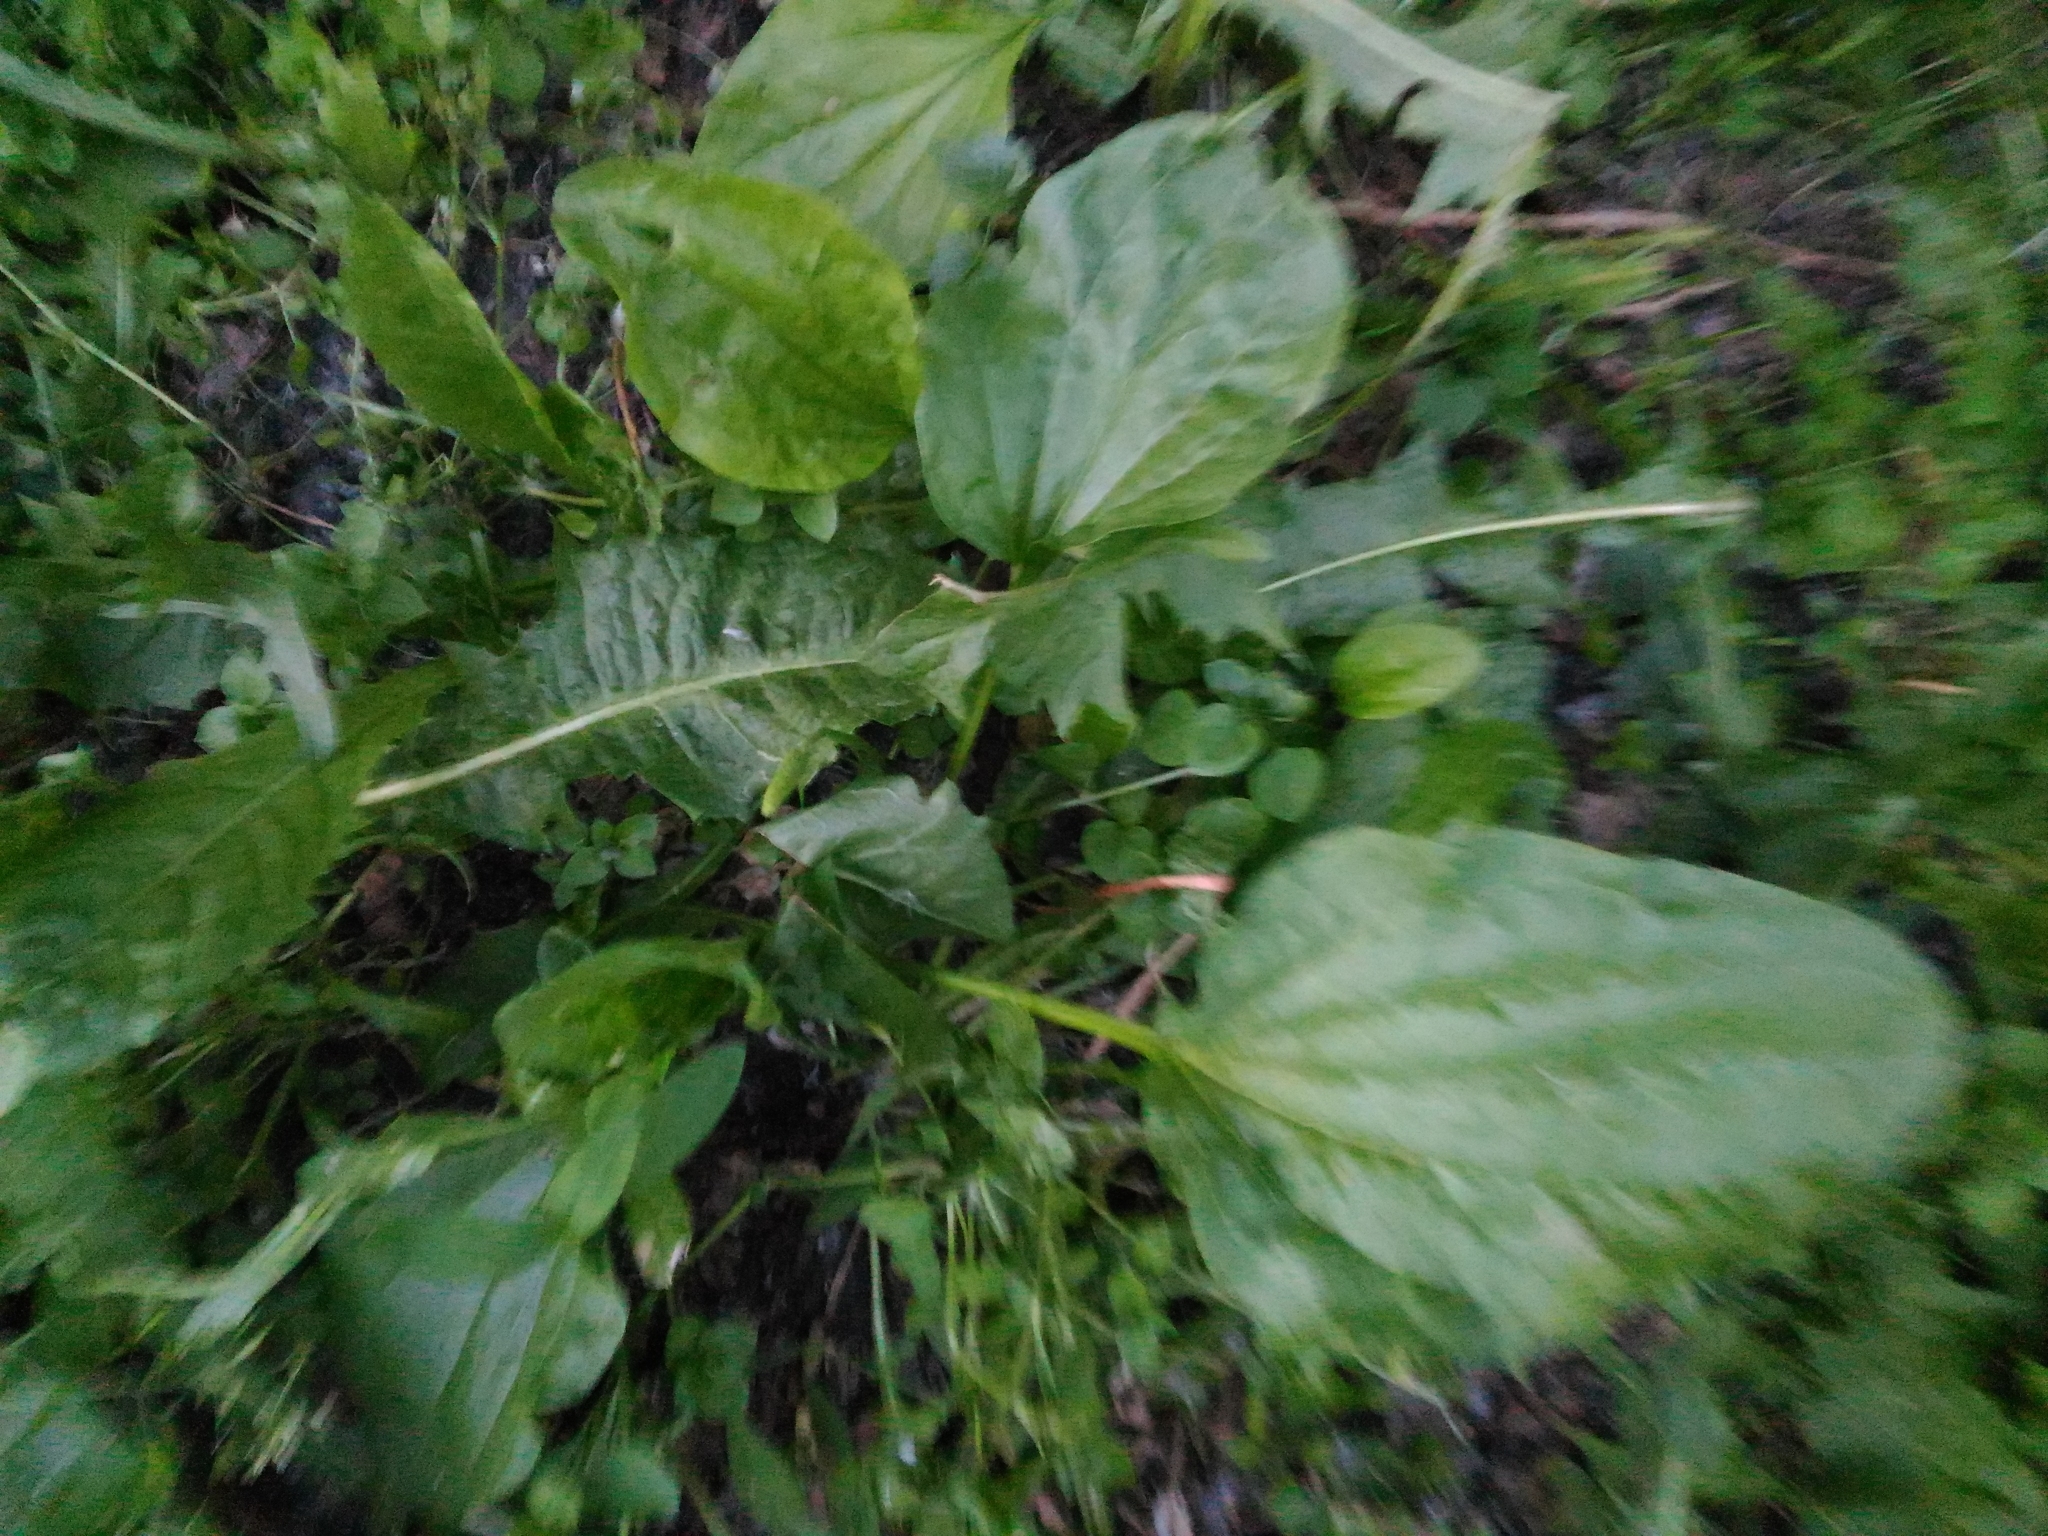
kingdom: Plantae
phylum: Tracheophyta
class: Magnoliopsida
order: Lamiales
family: Plantaginaceae
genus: Plantago
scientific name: Plantago major
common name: Common plantain
